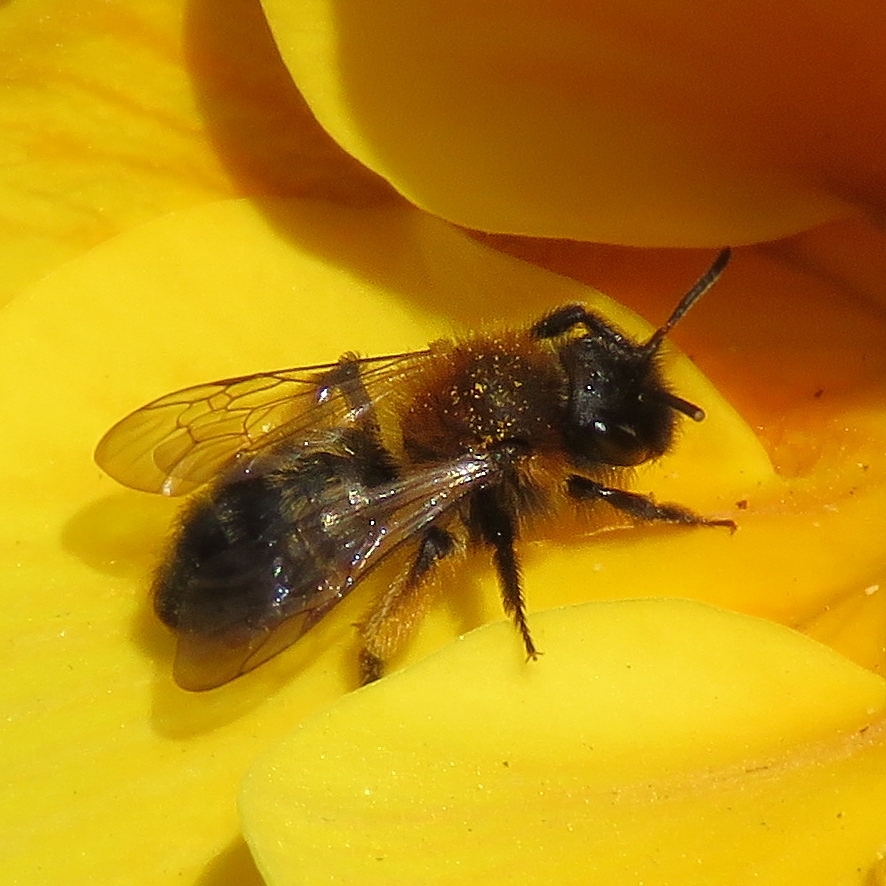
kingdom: Animalia
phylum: Arthropoda
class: Insecta
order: Hymenoptera
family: Andrenidae
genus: Andrena
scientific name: Andrena bicolor
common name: Gwynne's mining bee
